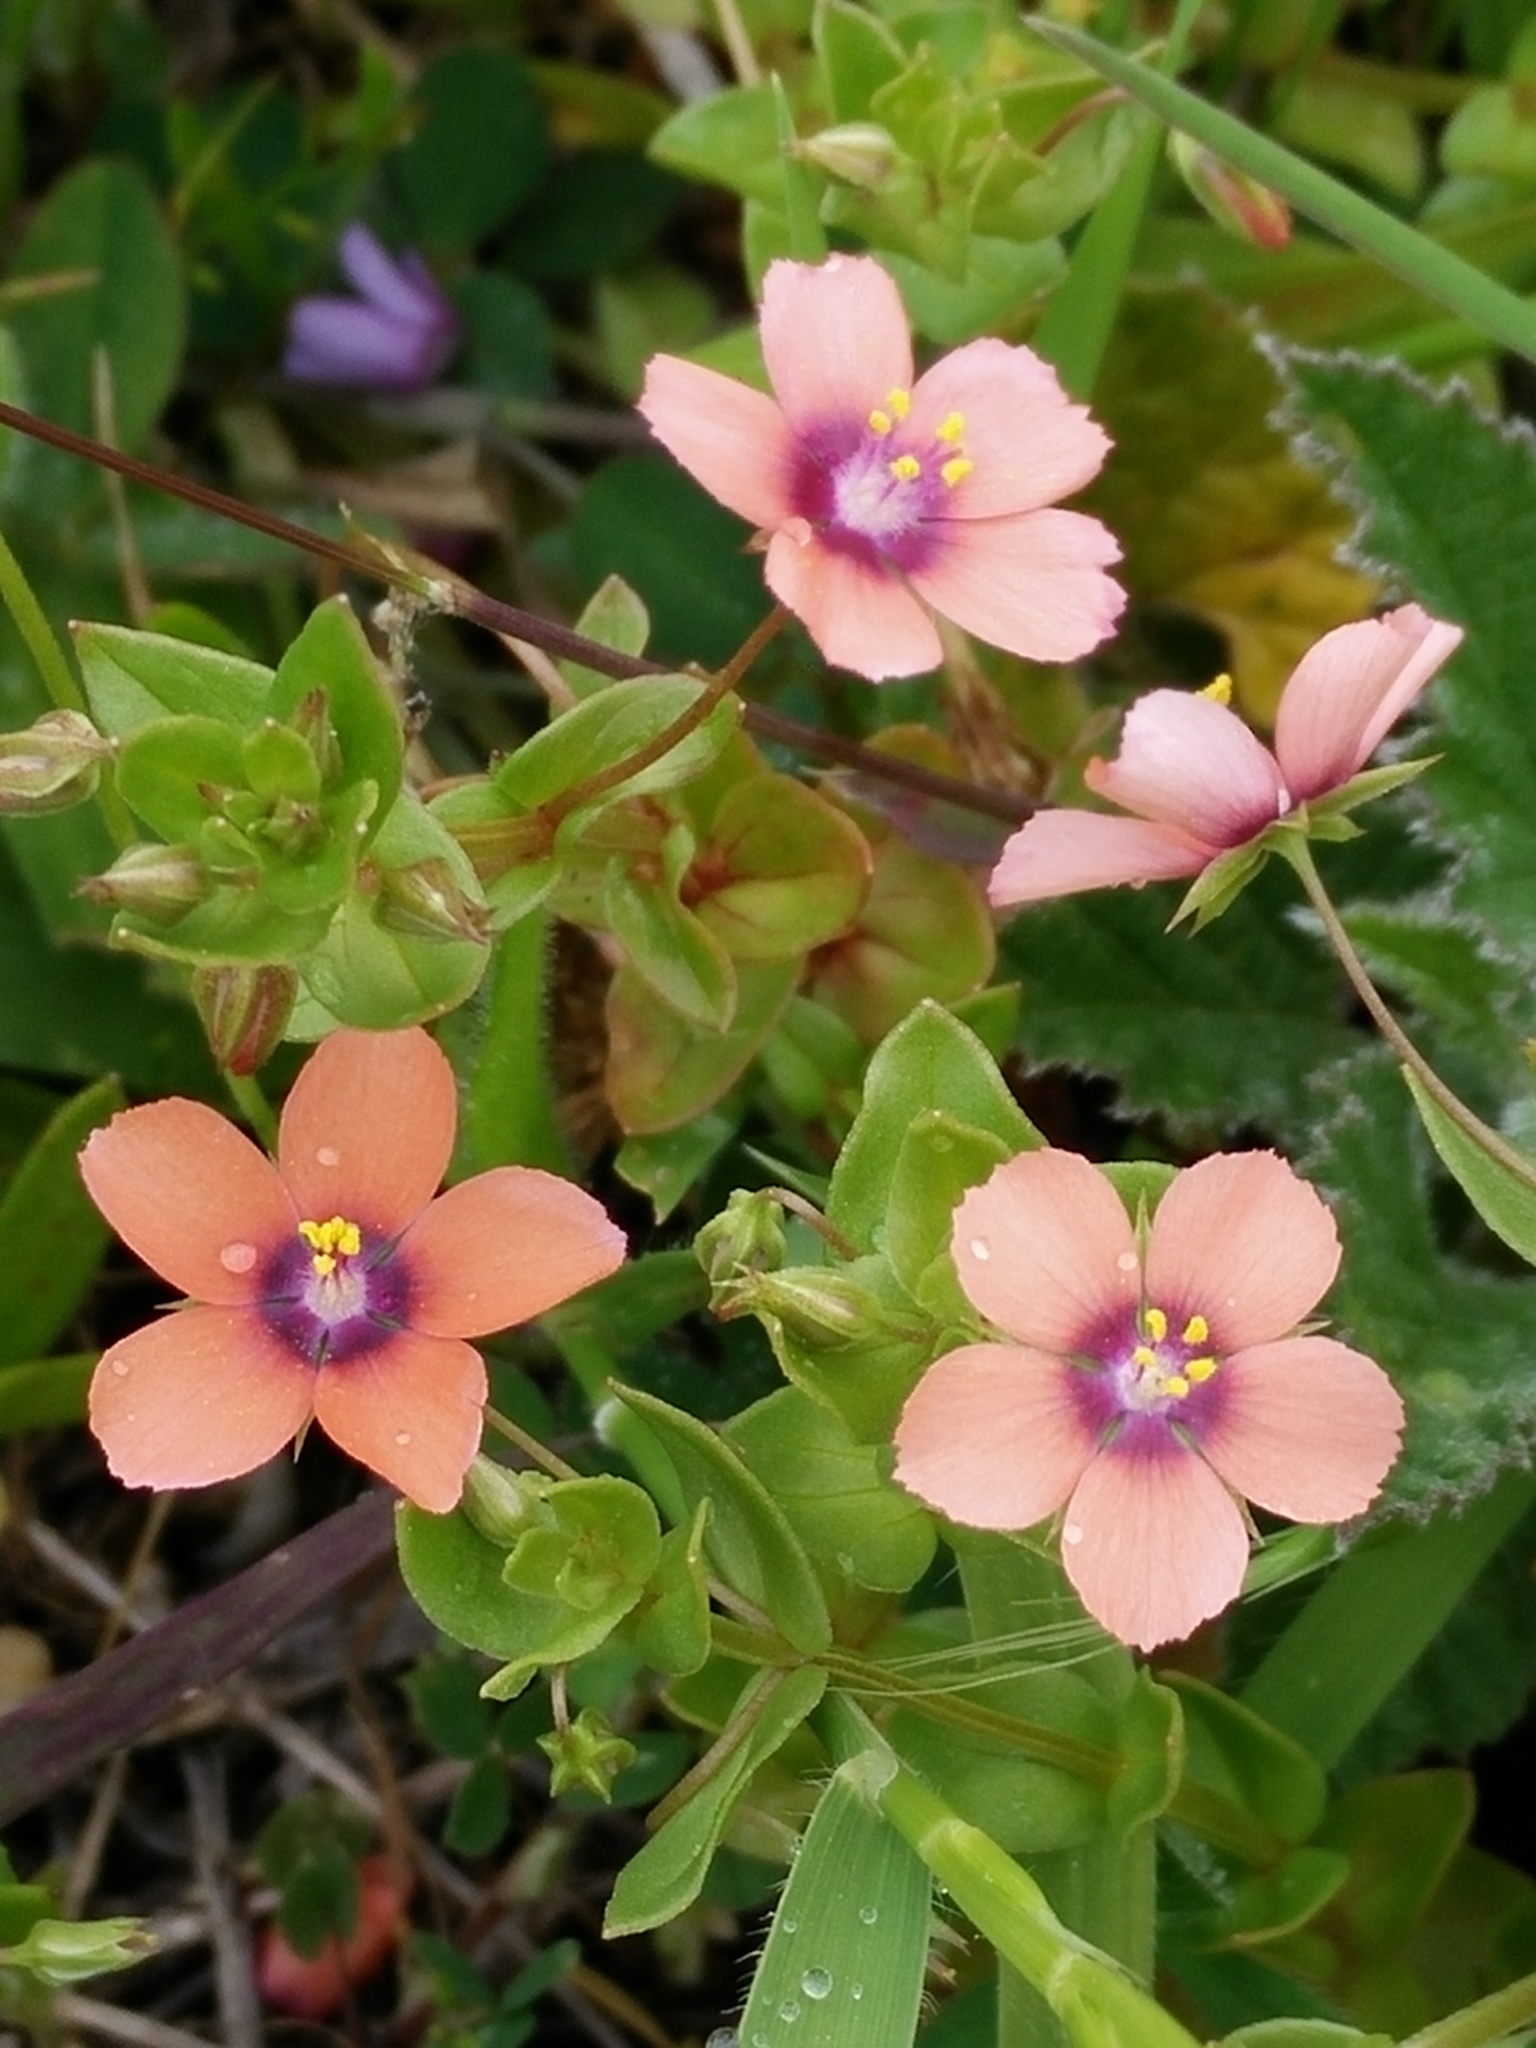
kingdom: Plantae
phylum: Tracheophyta
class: Magnoliopsida
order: Ericales
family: Primulaceae
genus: Lysimachia
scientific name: Lysimachia arvensis
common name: Scarlet pimpernel
